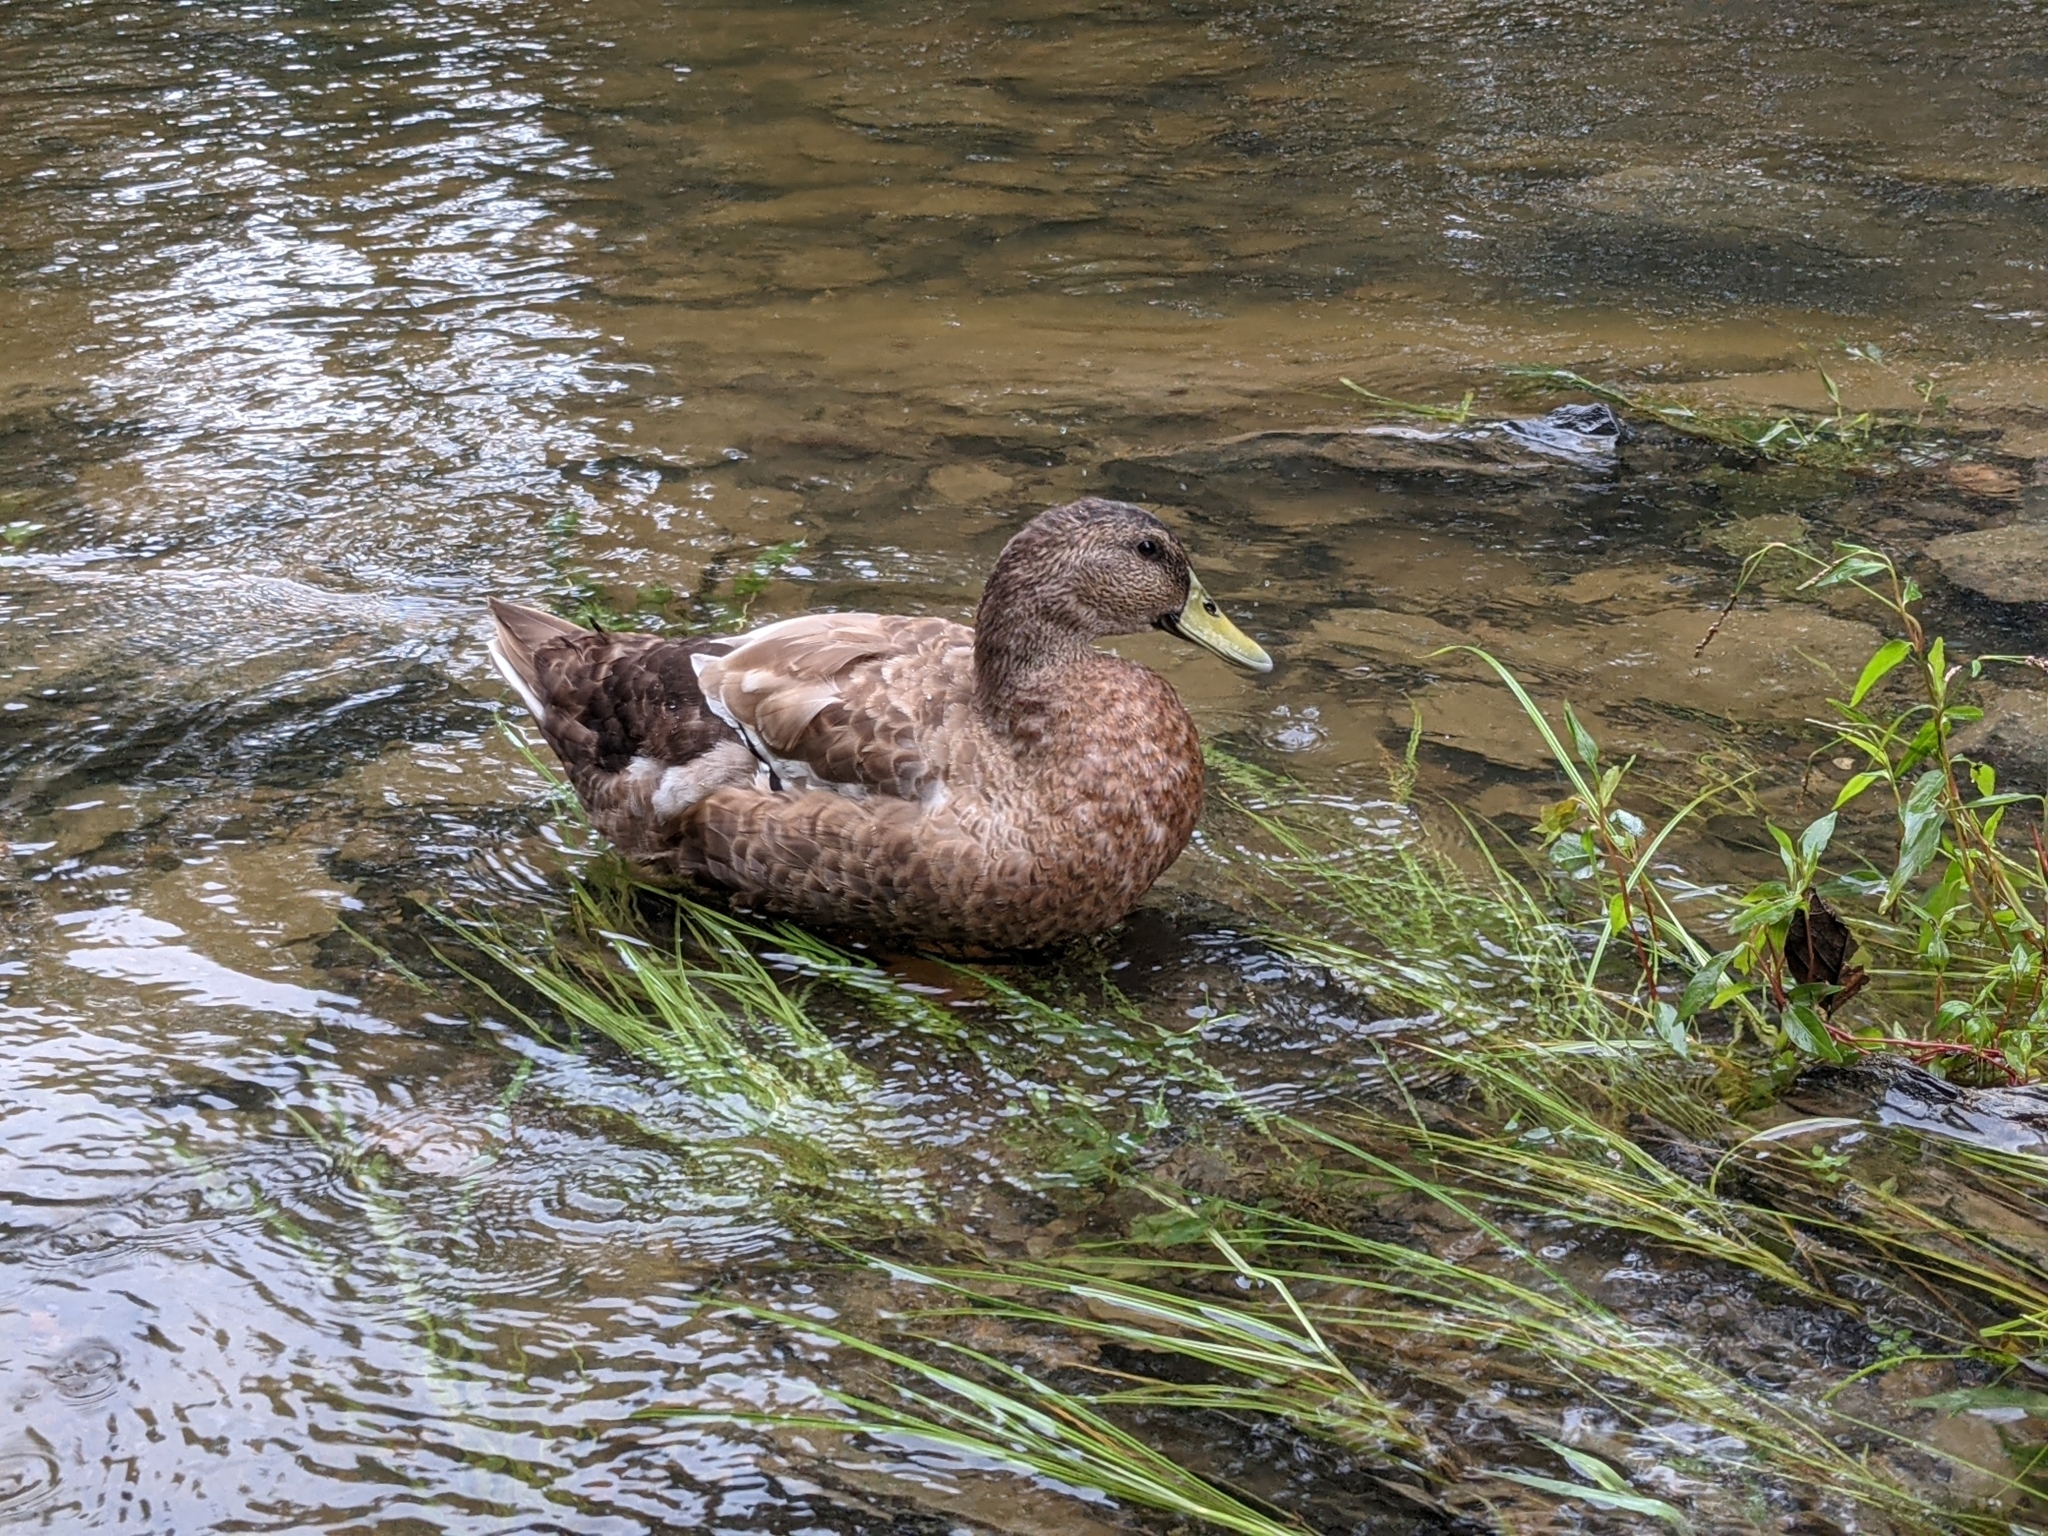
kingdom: Animalia
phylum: Chordata
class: Aves
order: Anseriformes
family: Anatidae
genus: Anas
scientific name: Anas platyrhynchos
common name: Mallard
